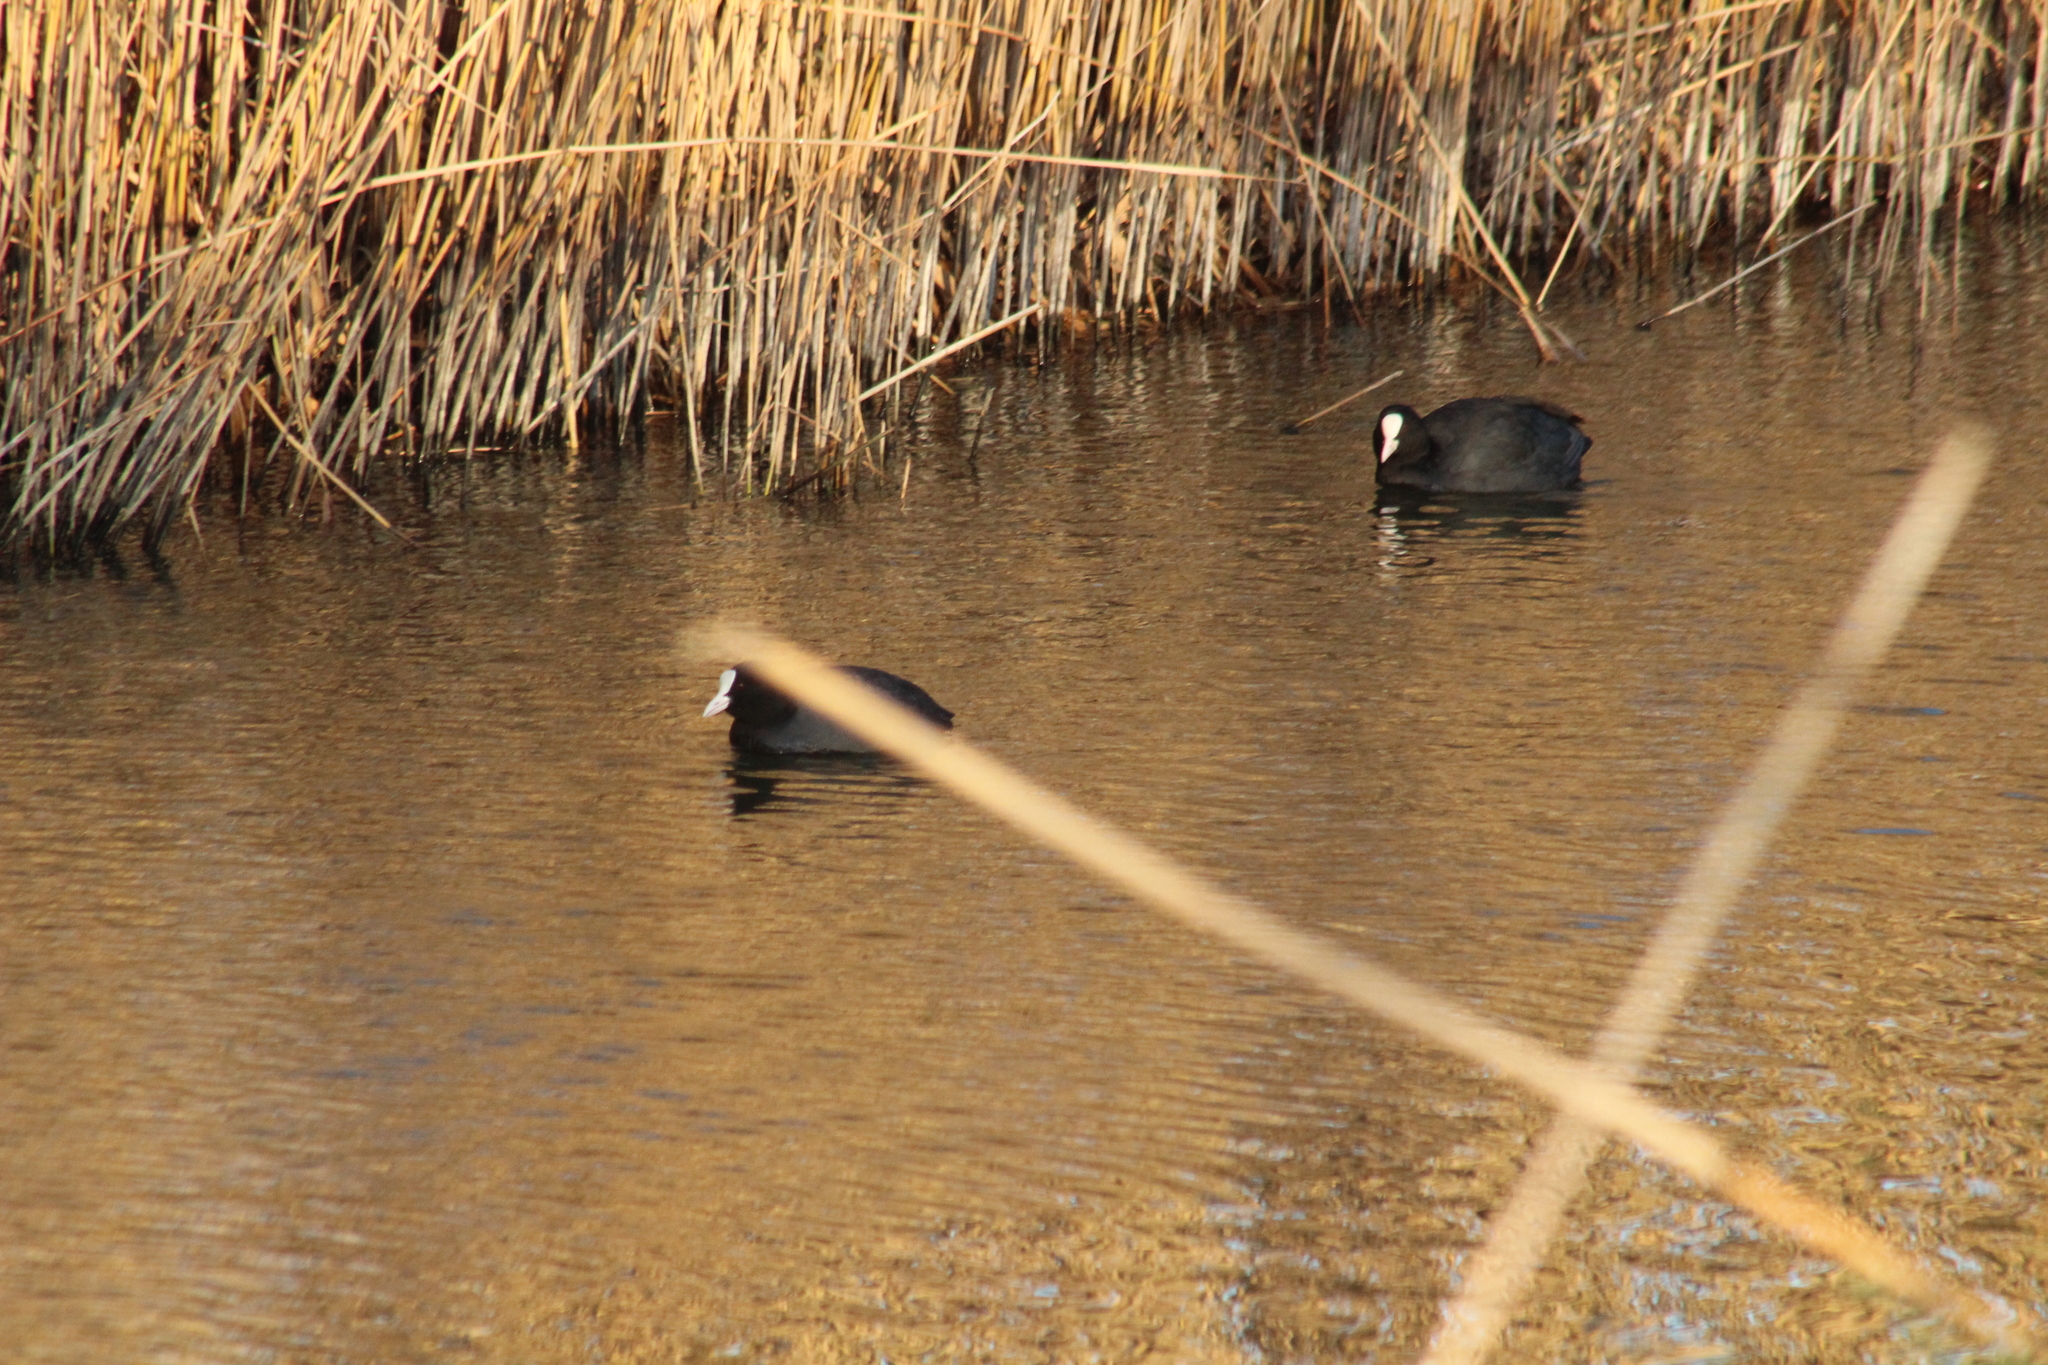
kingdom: Animalia
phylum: Chordata
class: Aves
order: Gruiformes
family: Rallidae
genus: Fulica
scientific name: Fulica atra
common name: Eurasian coot
